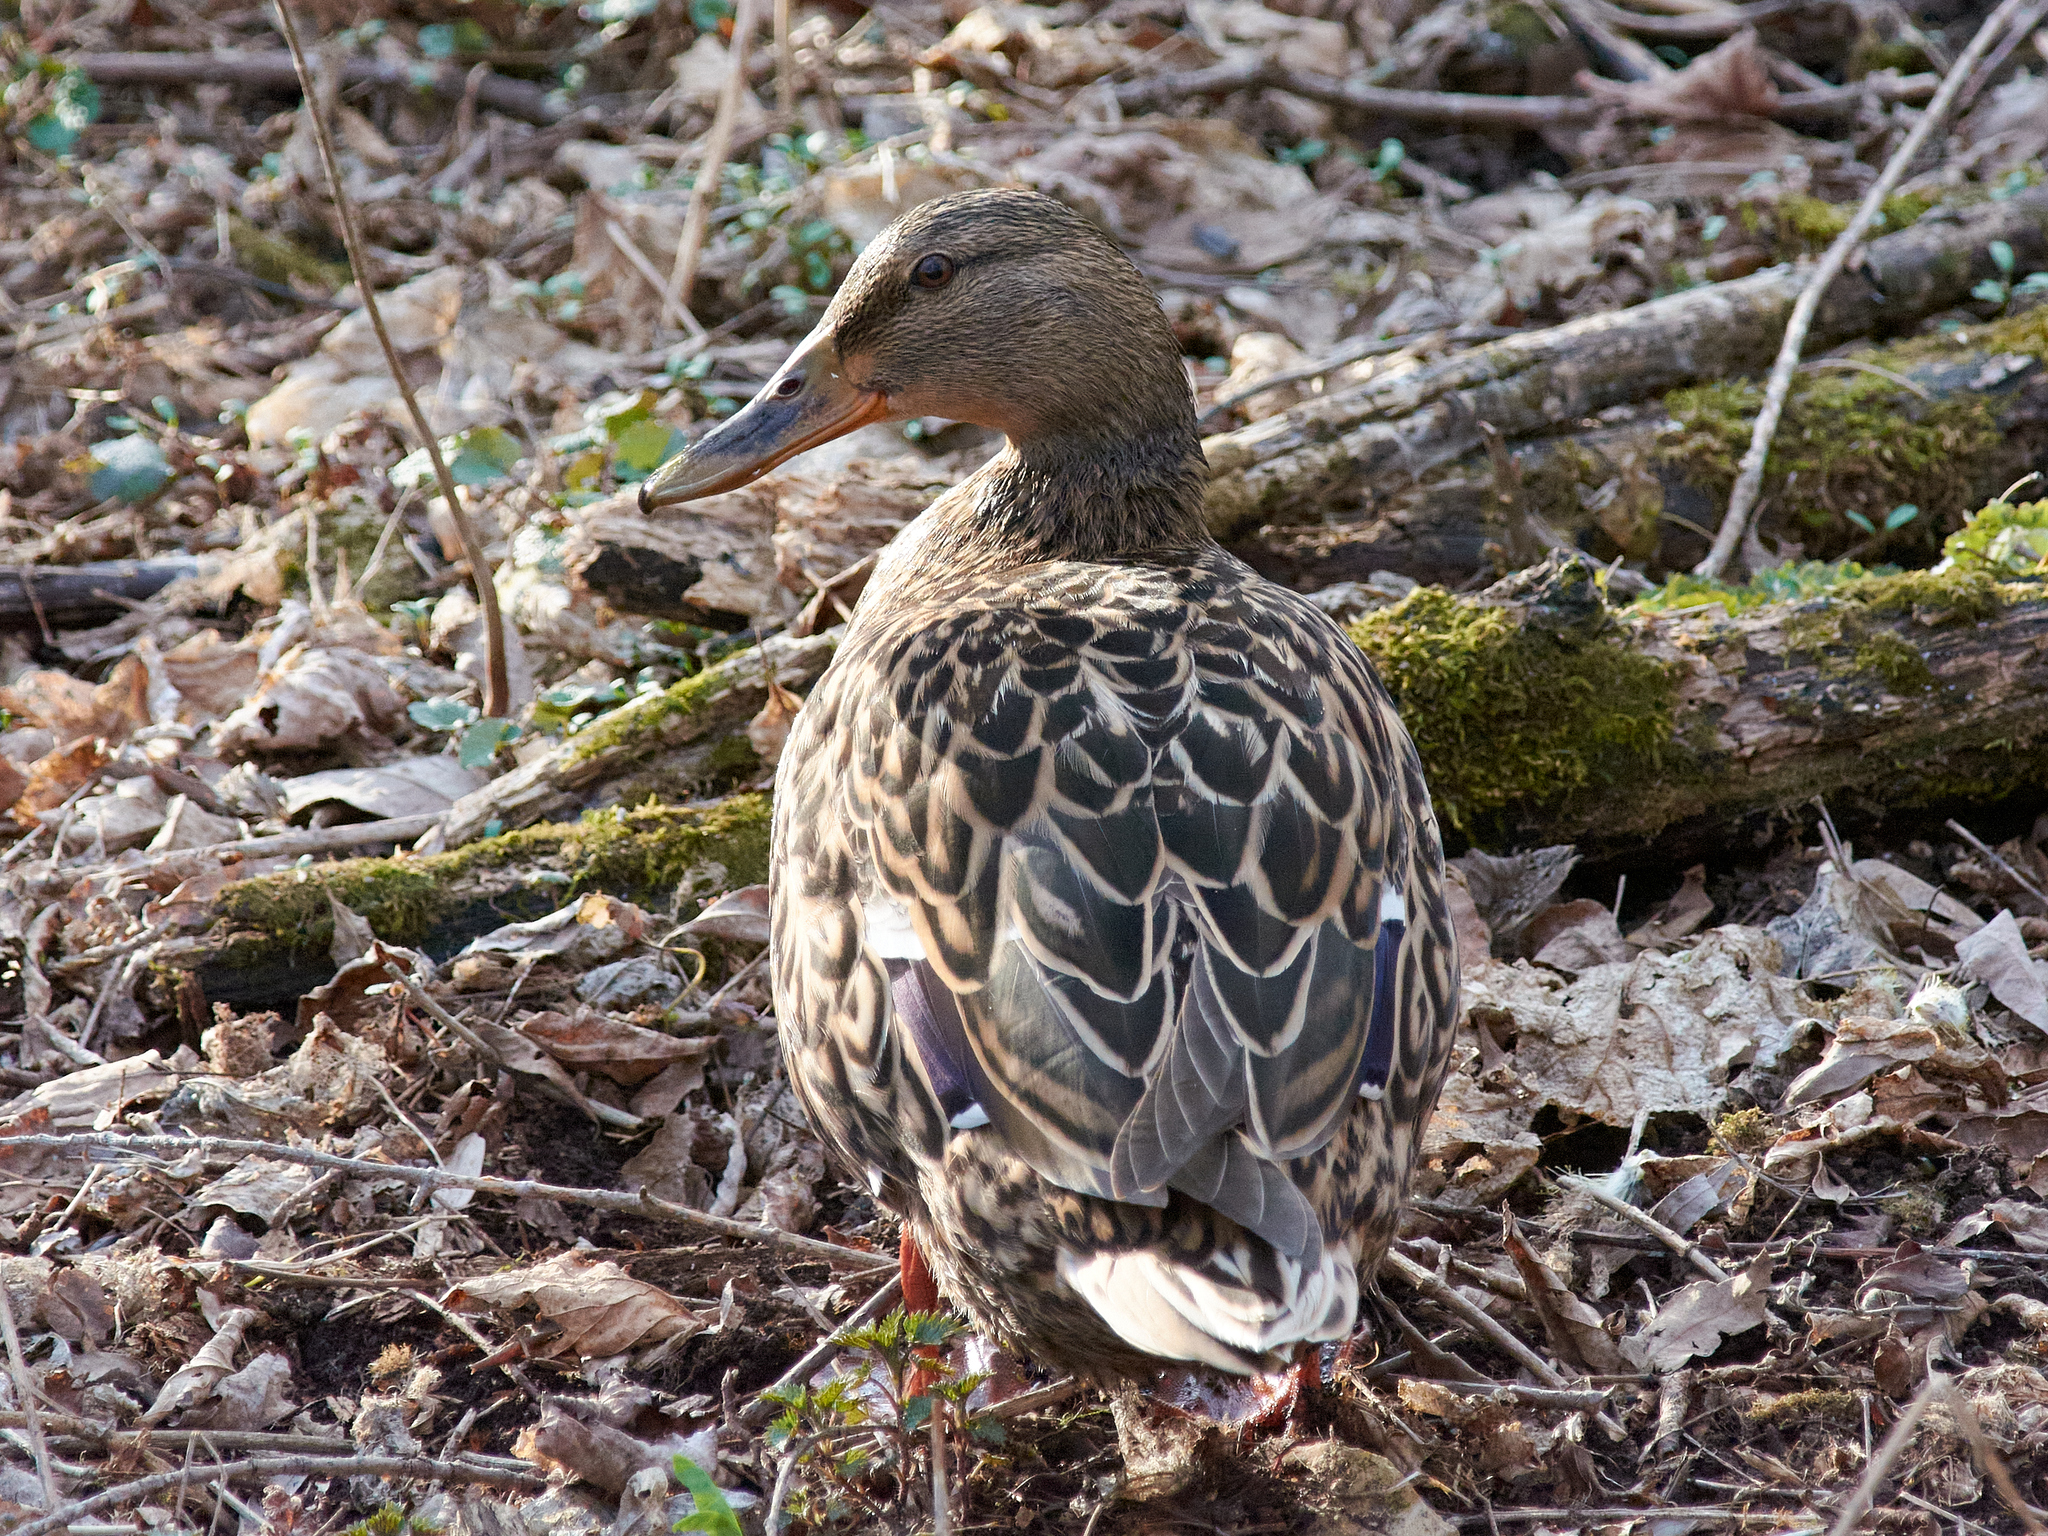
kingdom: Animalia
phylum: Chordata
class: Aves
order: Anseriformes
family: Anatidae
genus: Anas
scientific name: Anas platyrhynchos
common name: Mallard
